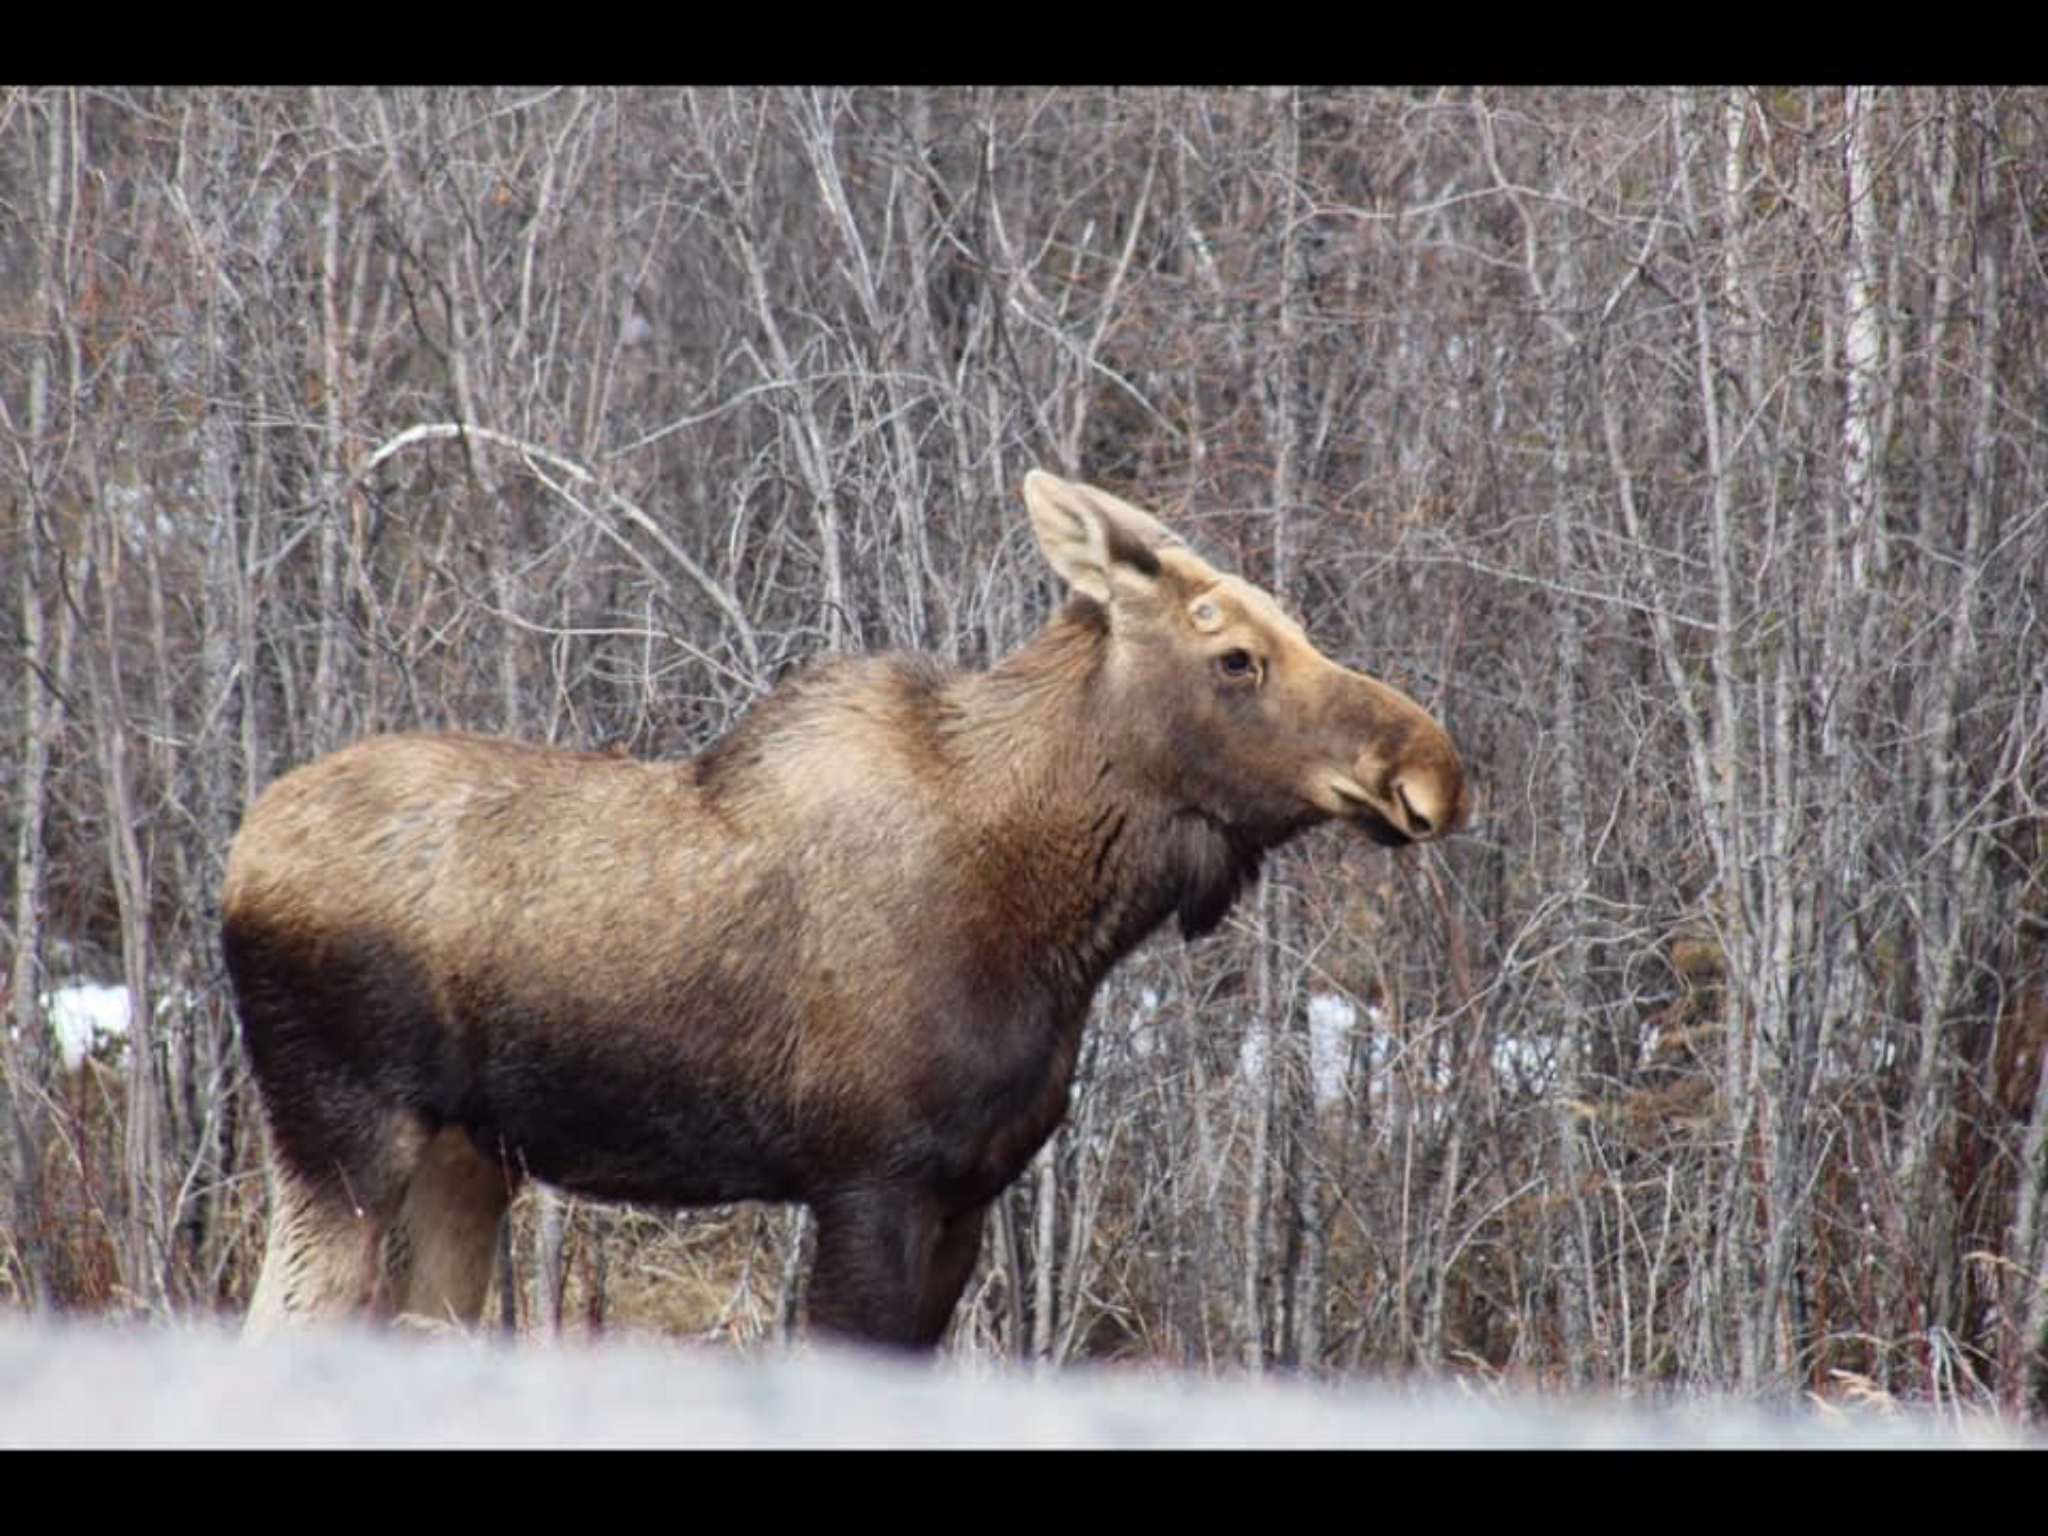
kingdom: Animalia
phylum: Chordata
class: Mammalia
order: Artiodactyla
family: Cervidae
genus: Alces
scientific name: Alces alces
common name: Moose
